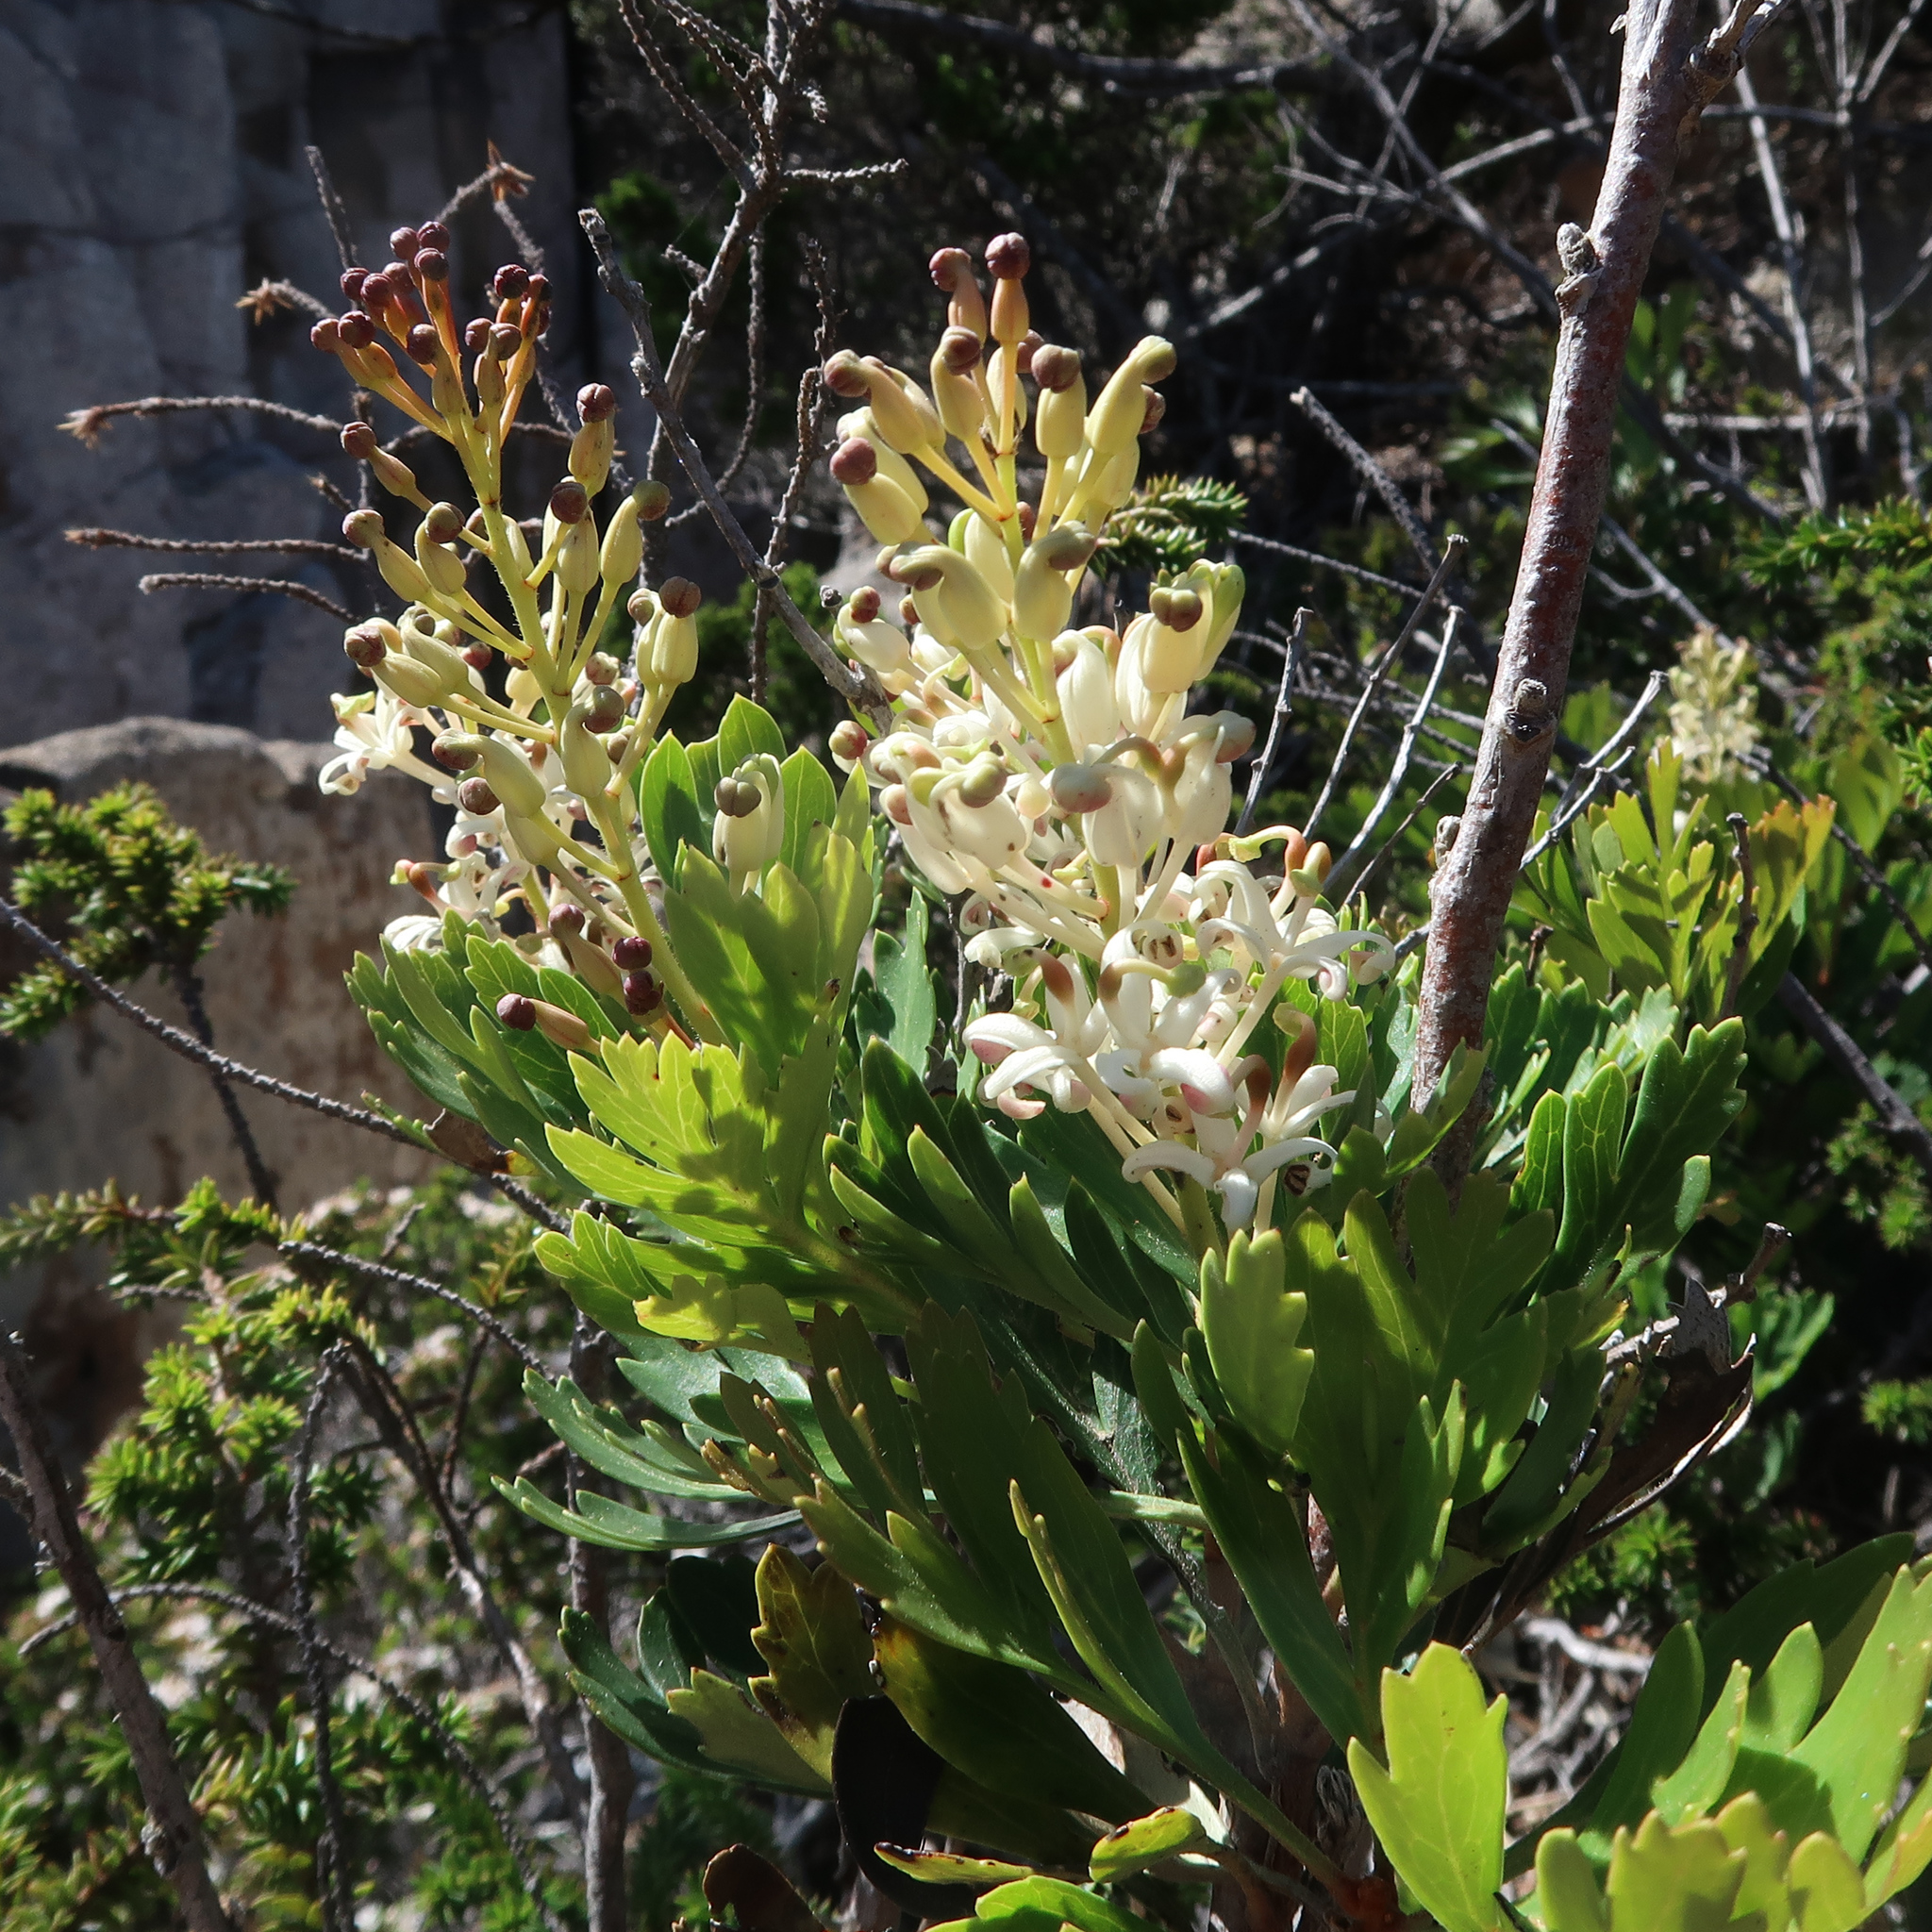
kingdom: Plantae
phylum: Tracheophyta
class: Magnoliopsida
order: Proteales
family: Proteaceae
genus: Lomatia
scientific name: Lomatia tinctoria
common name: Guitar plant
